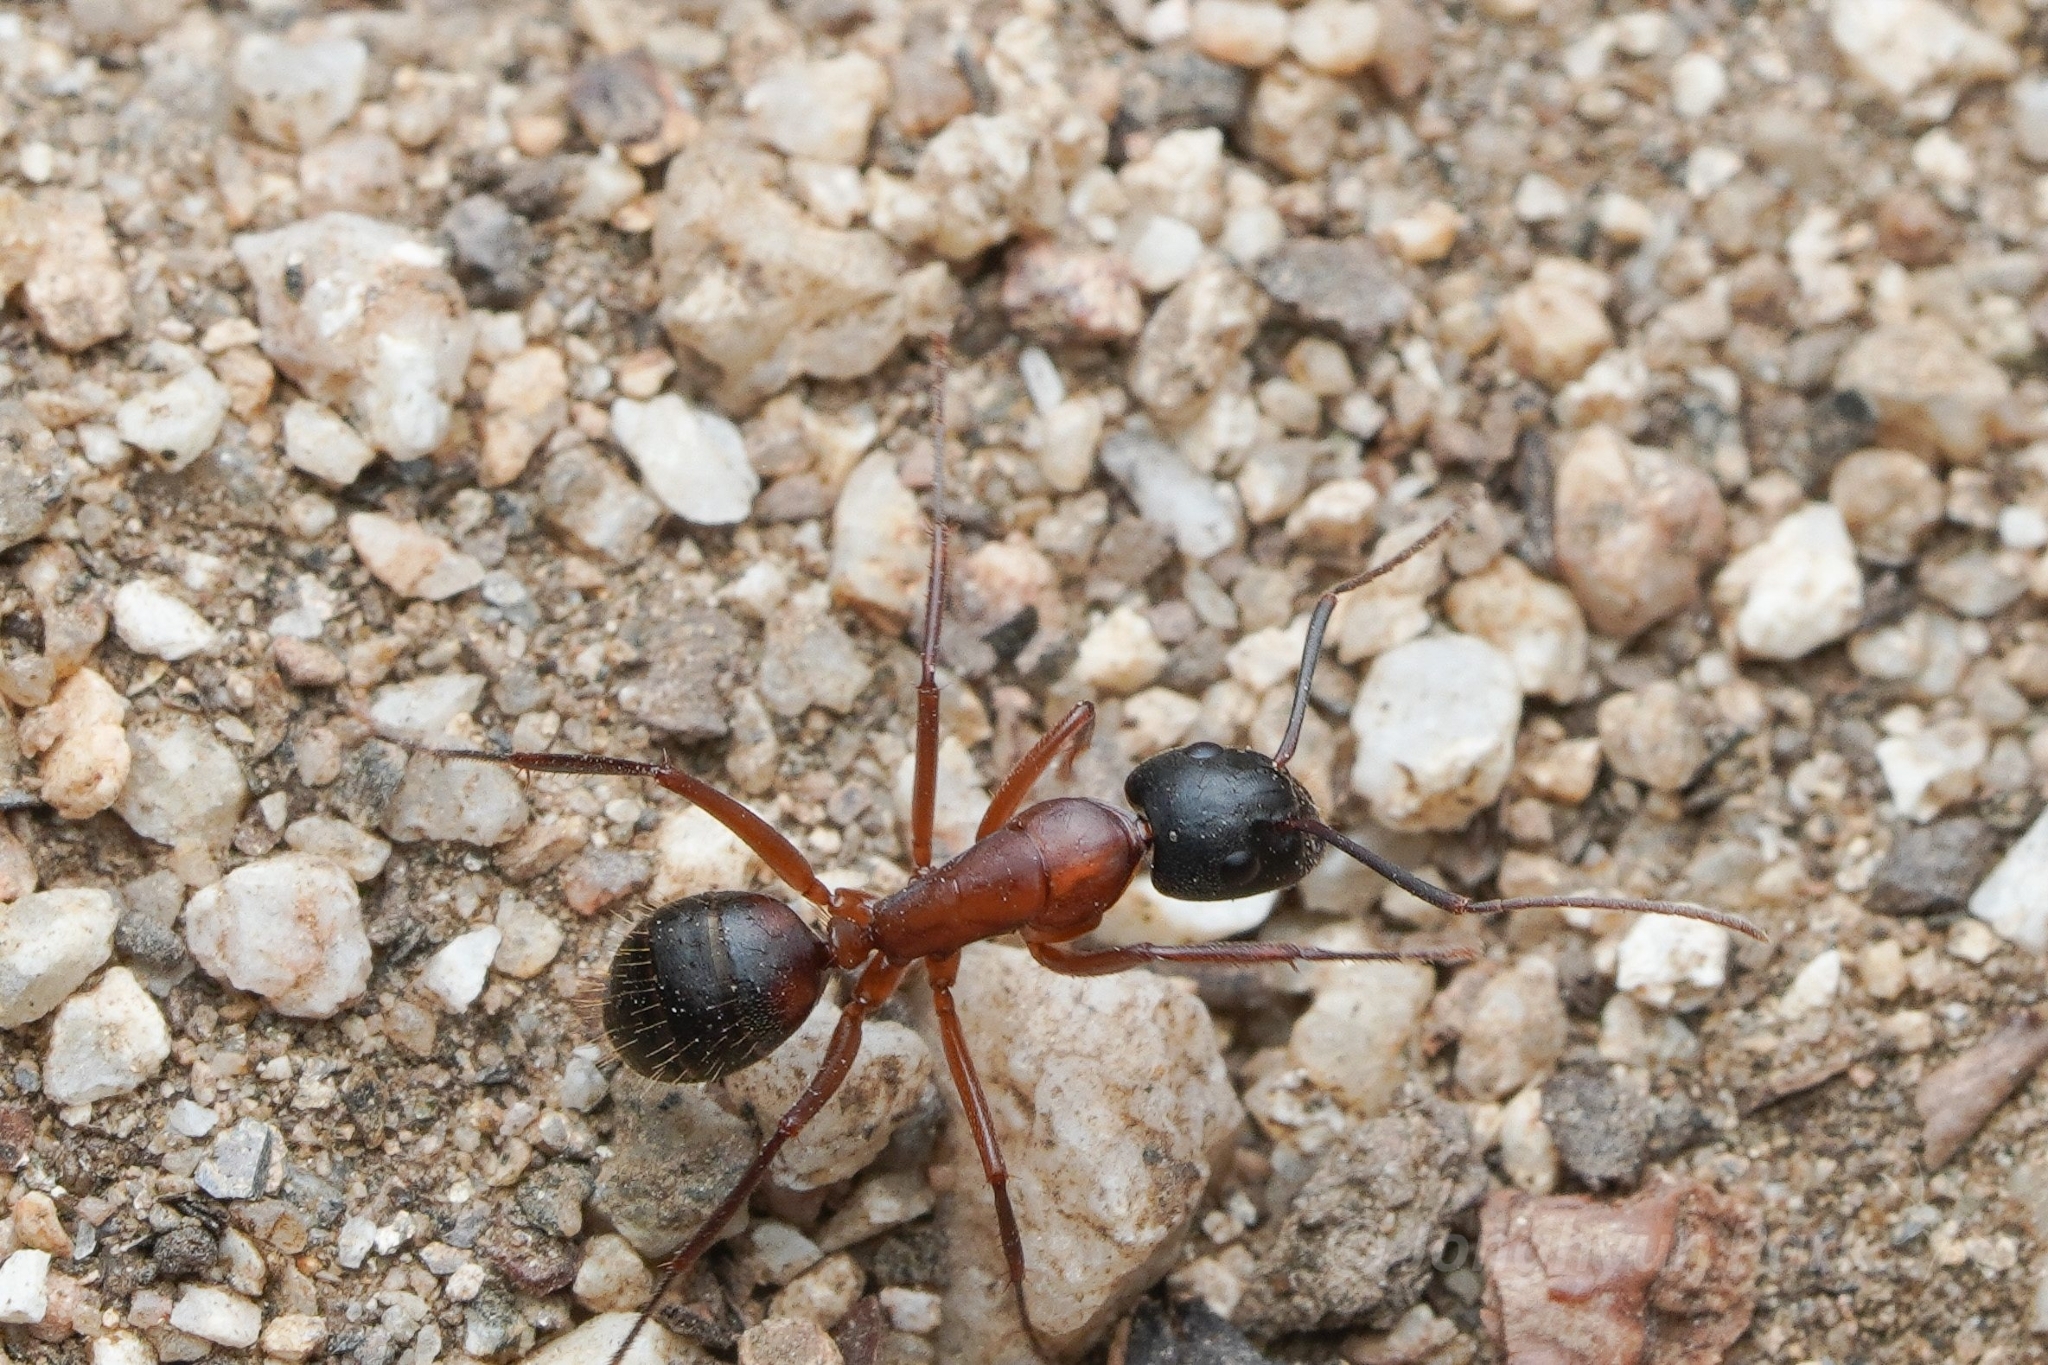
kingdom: Animalia
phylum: Arthropoda
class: Insecta
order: Hymenoptera
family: Formicidae
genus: Camponotus
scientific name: Camponotus vicinus
